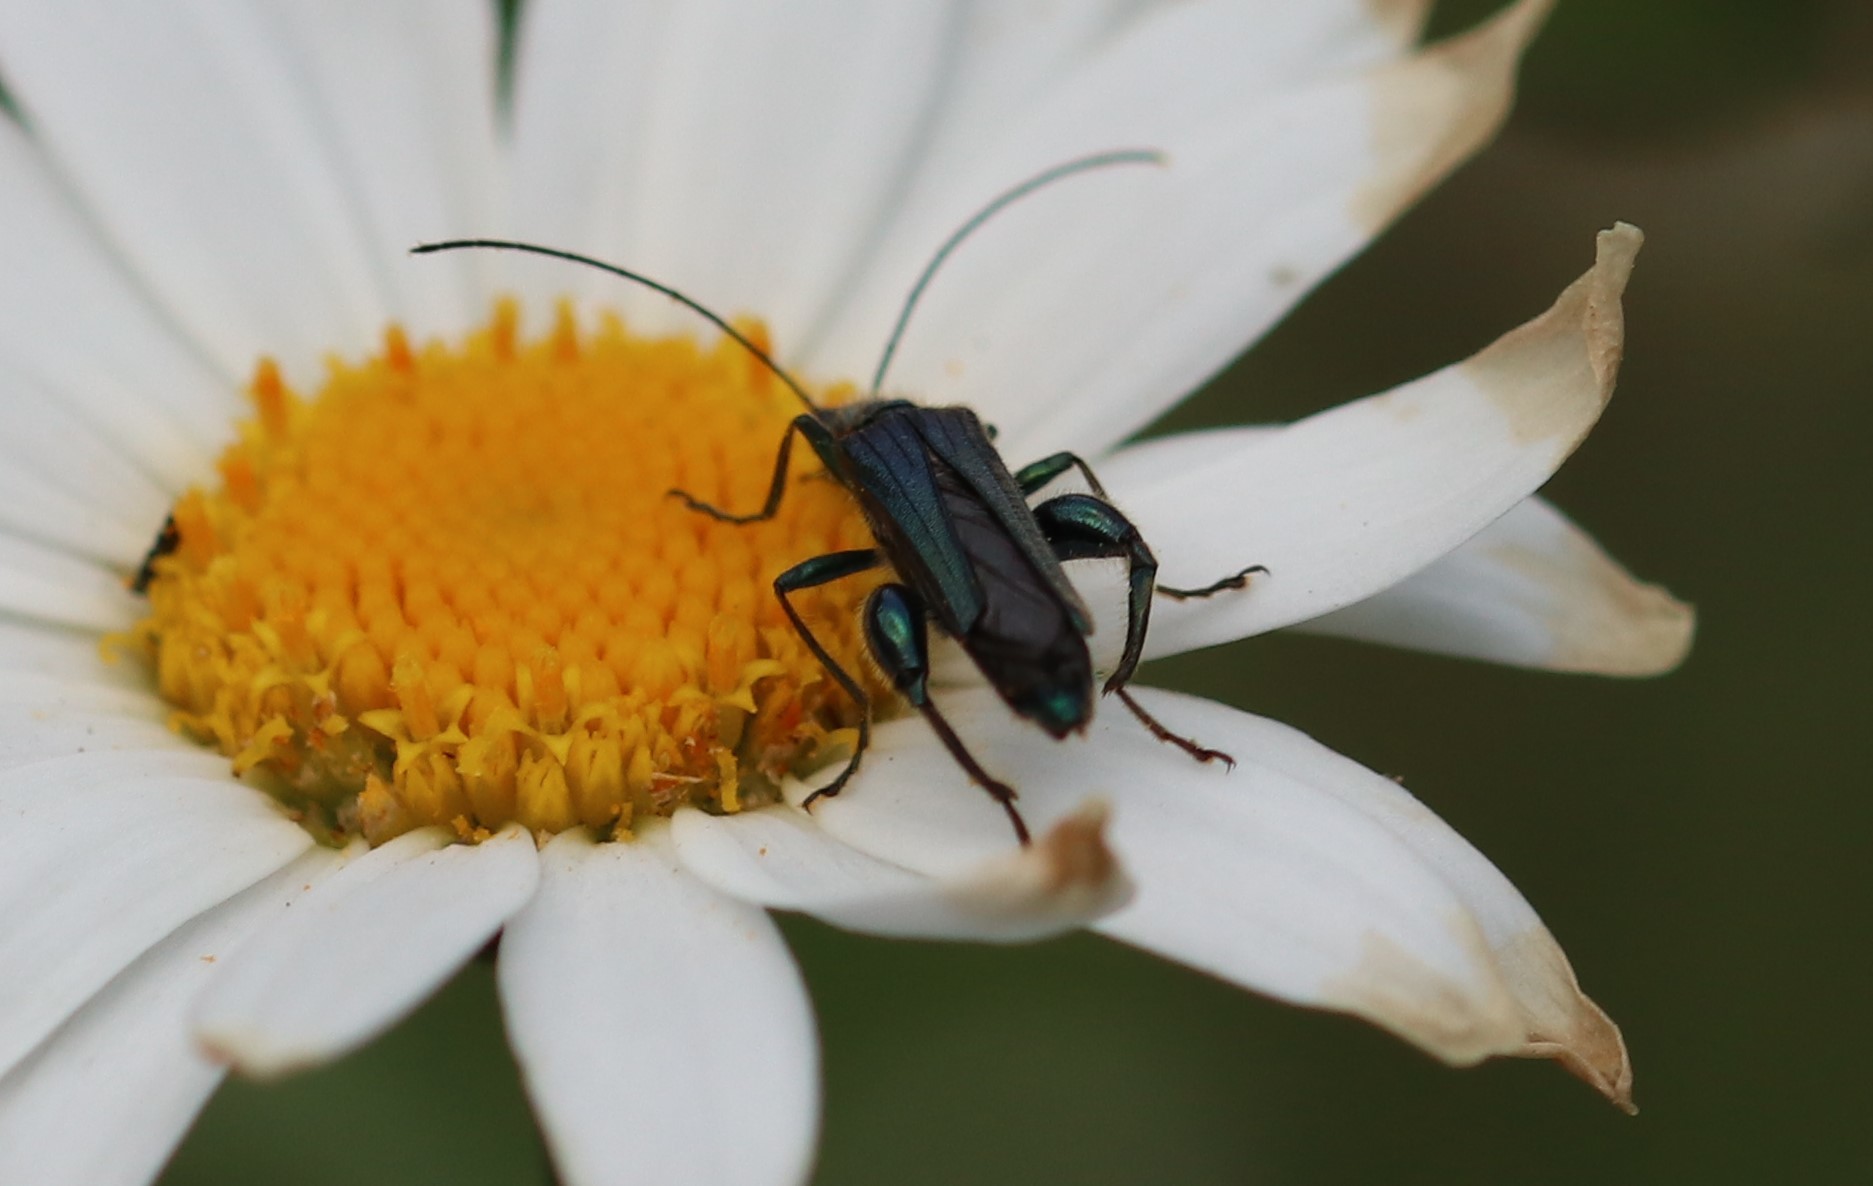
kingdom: Animalia
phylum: Arthropoda
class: Insecta
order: Coleoptera
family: Oedemeridae
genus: Oedemera
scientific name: Oedemera nobilis
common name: Swollen-thighed beetle
